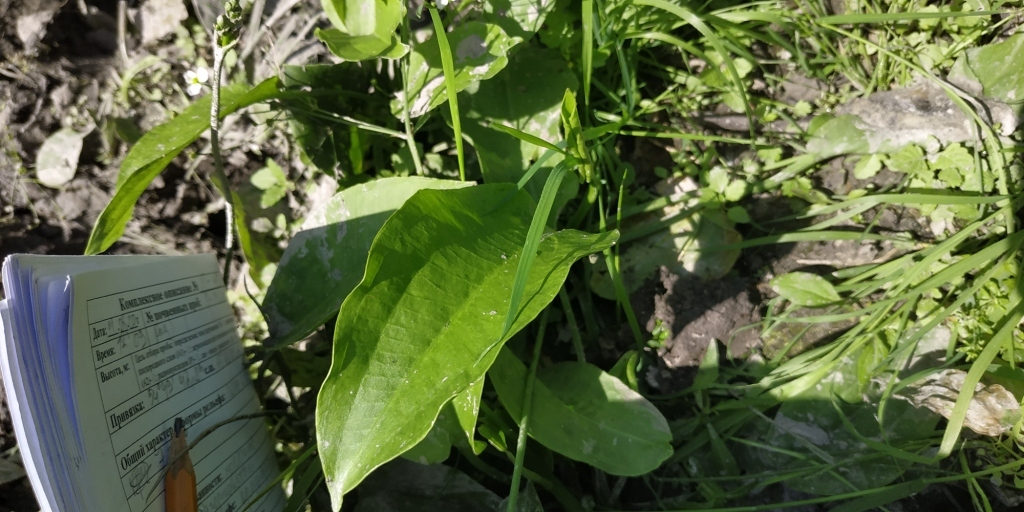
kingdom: Plantae
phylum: Tracheophyta
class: Liliopsida
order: Alismatales
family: Alismataceae
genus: Alisma
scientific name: Alisma plantago-aquatica
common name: Water-plantain
